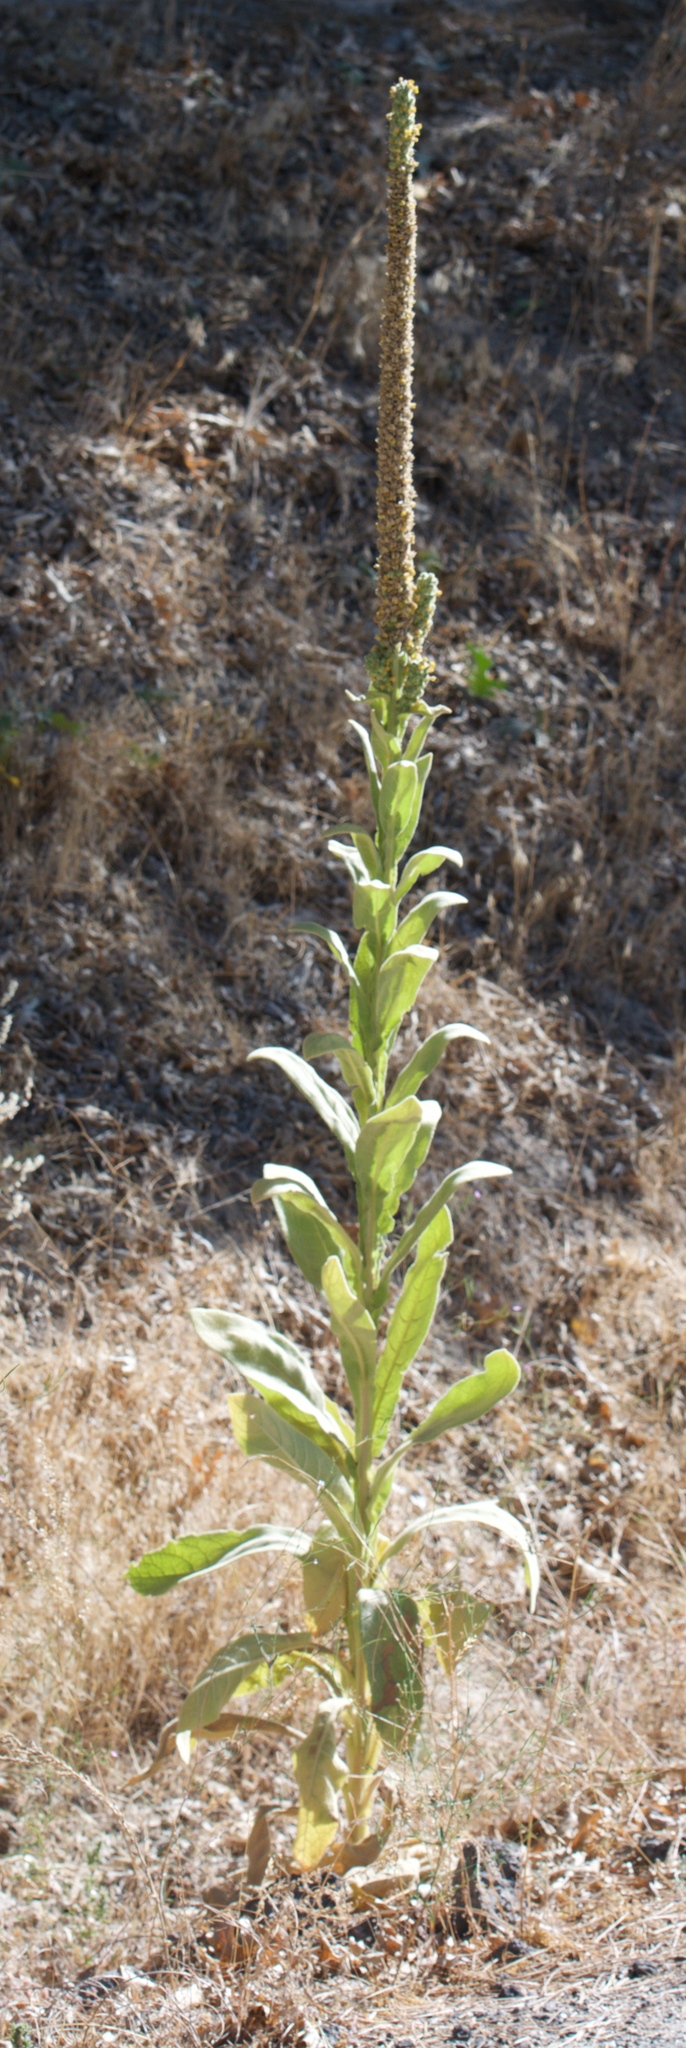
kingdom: Plantae
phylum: Tracheophyta
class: Magnoliopsida
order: Lamiales
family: Scrophulariaceae
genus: Verbascum
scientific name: Verbascum thapsus
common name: Common mullein
